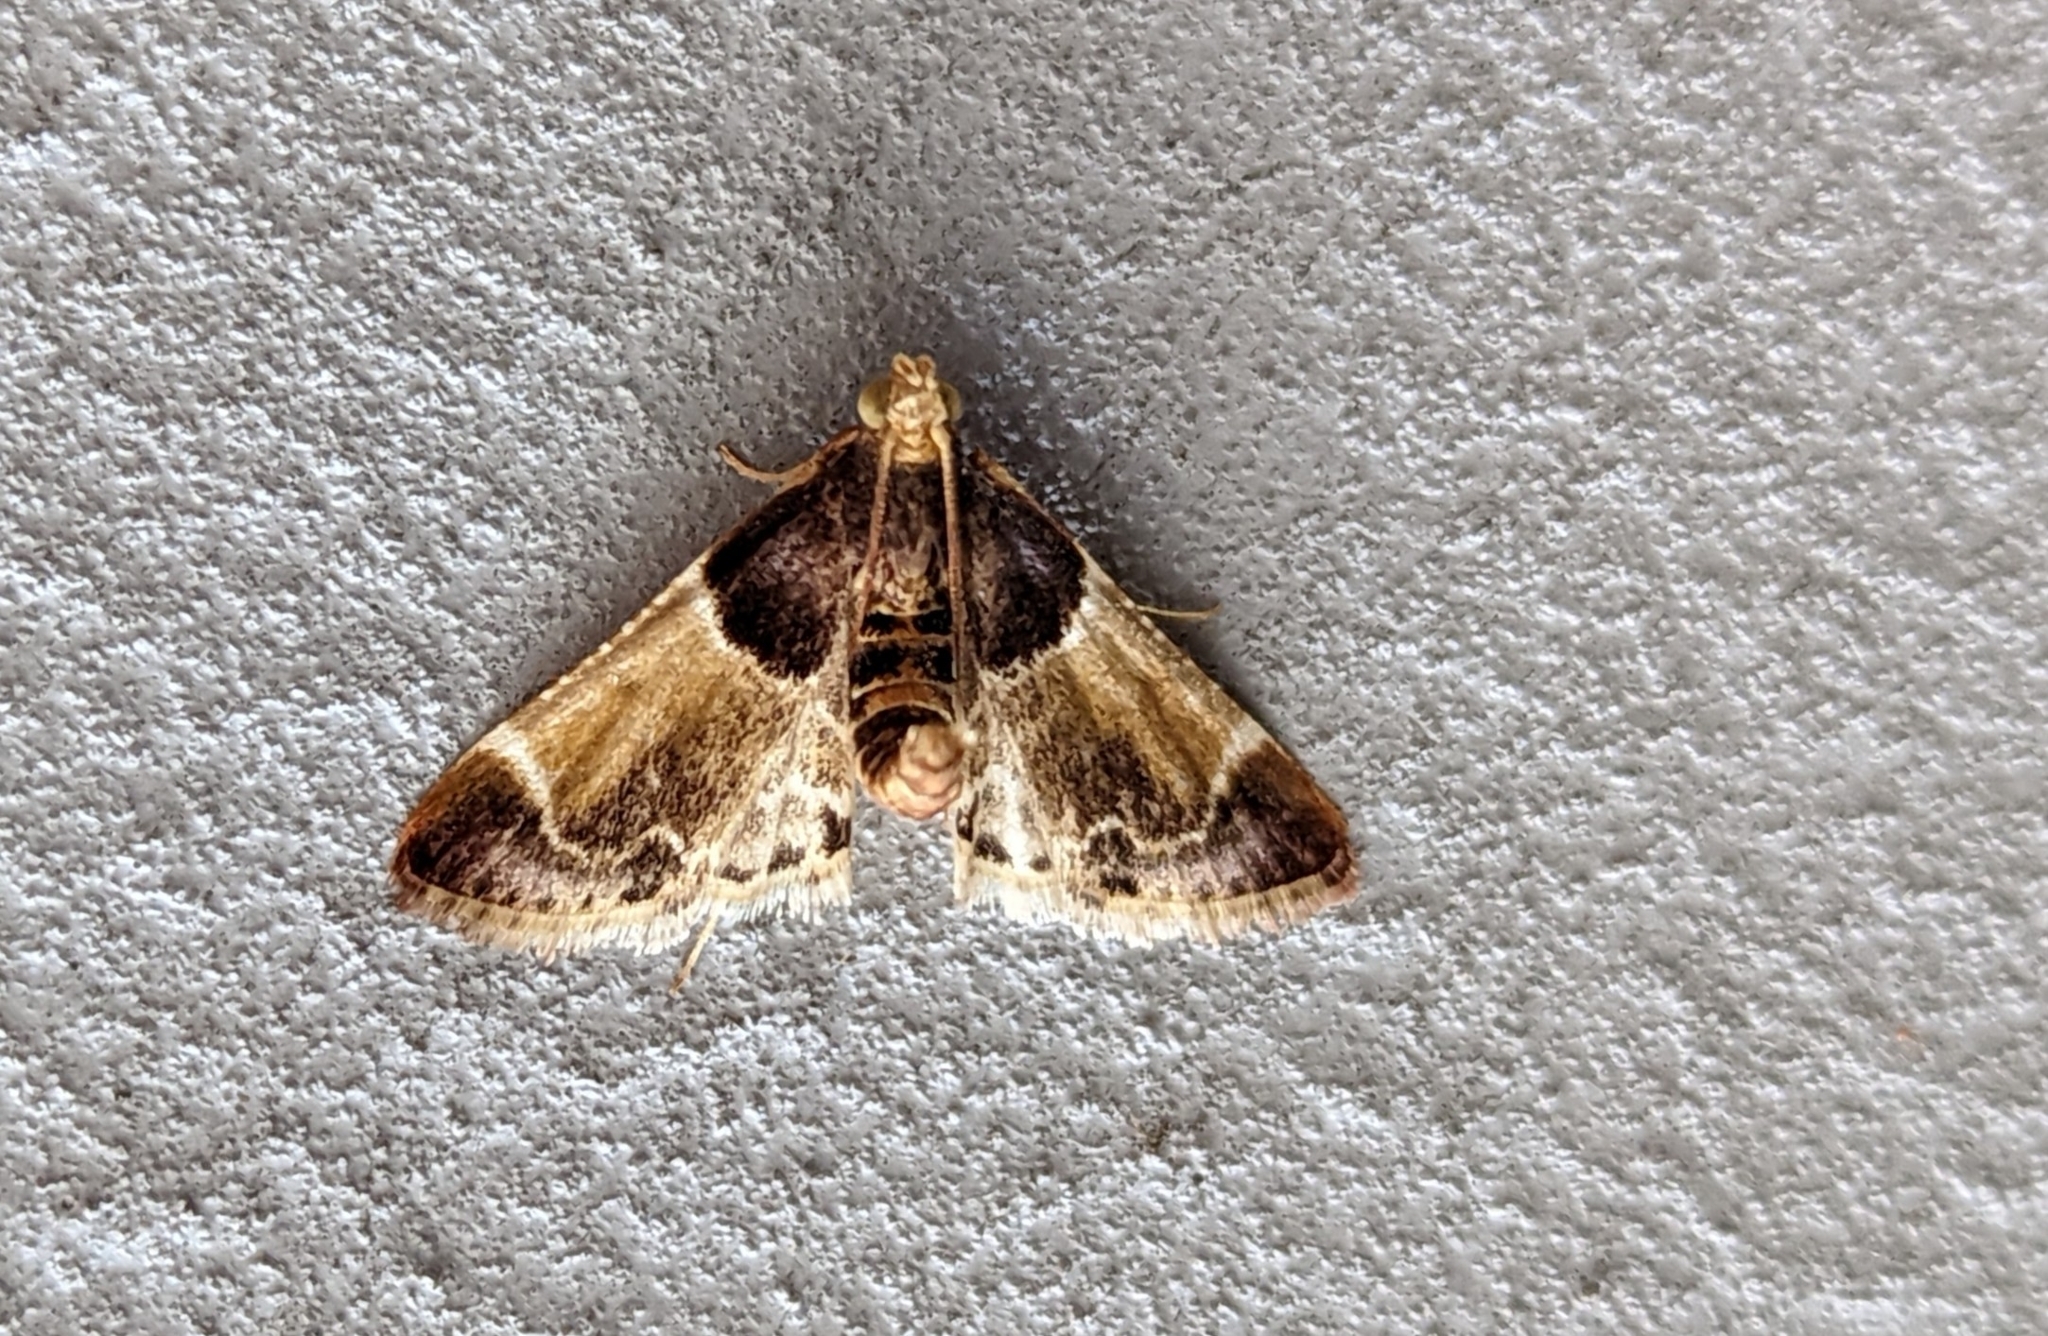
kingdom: Animalia
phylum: Arthropoda
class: Insecta
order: Lepidoptera
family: Pyralidae
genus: Pyralis
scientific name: Pyralis farinalis
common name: Meal moth
